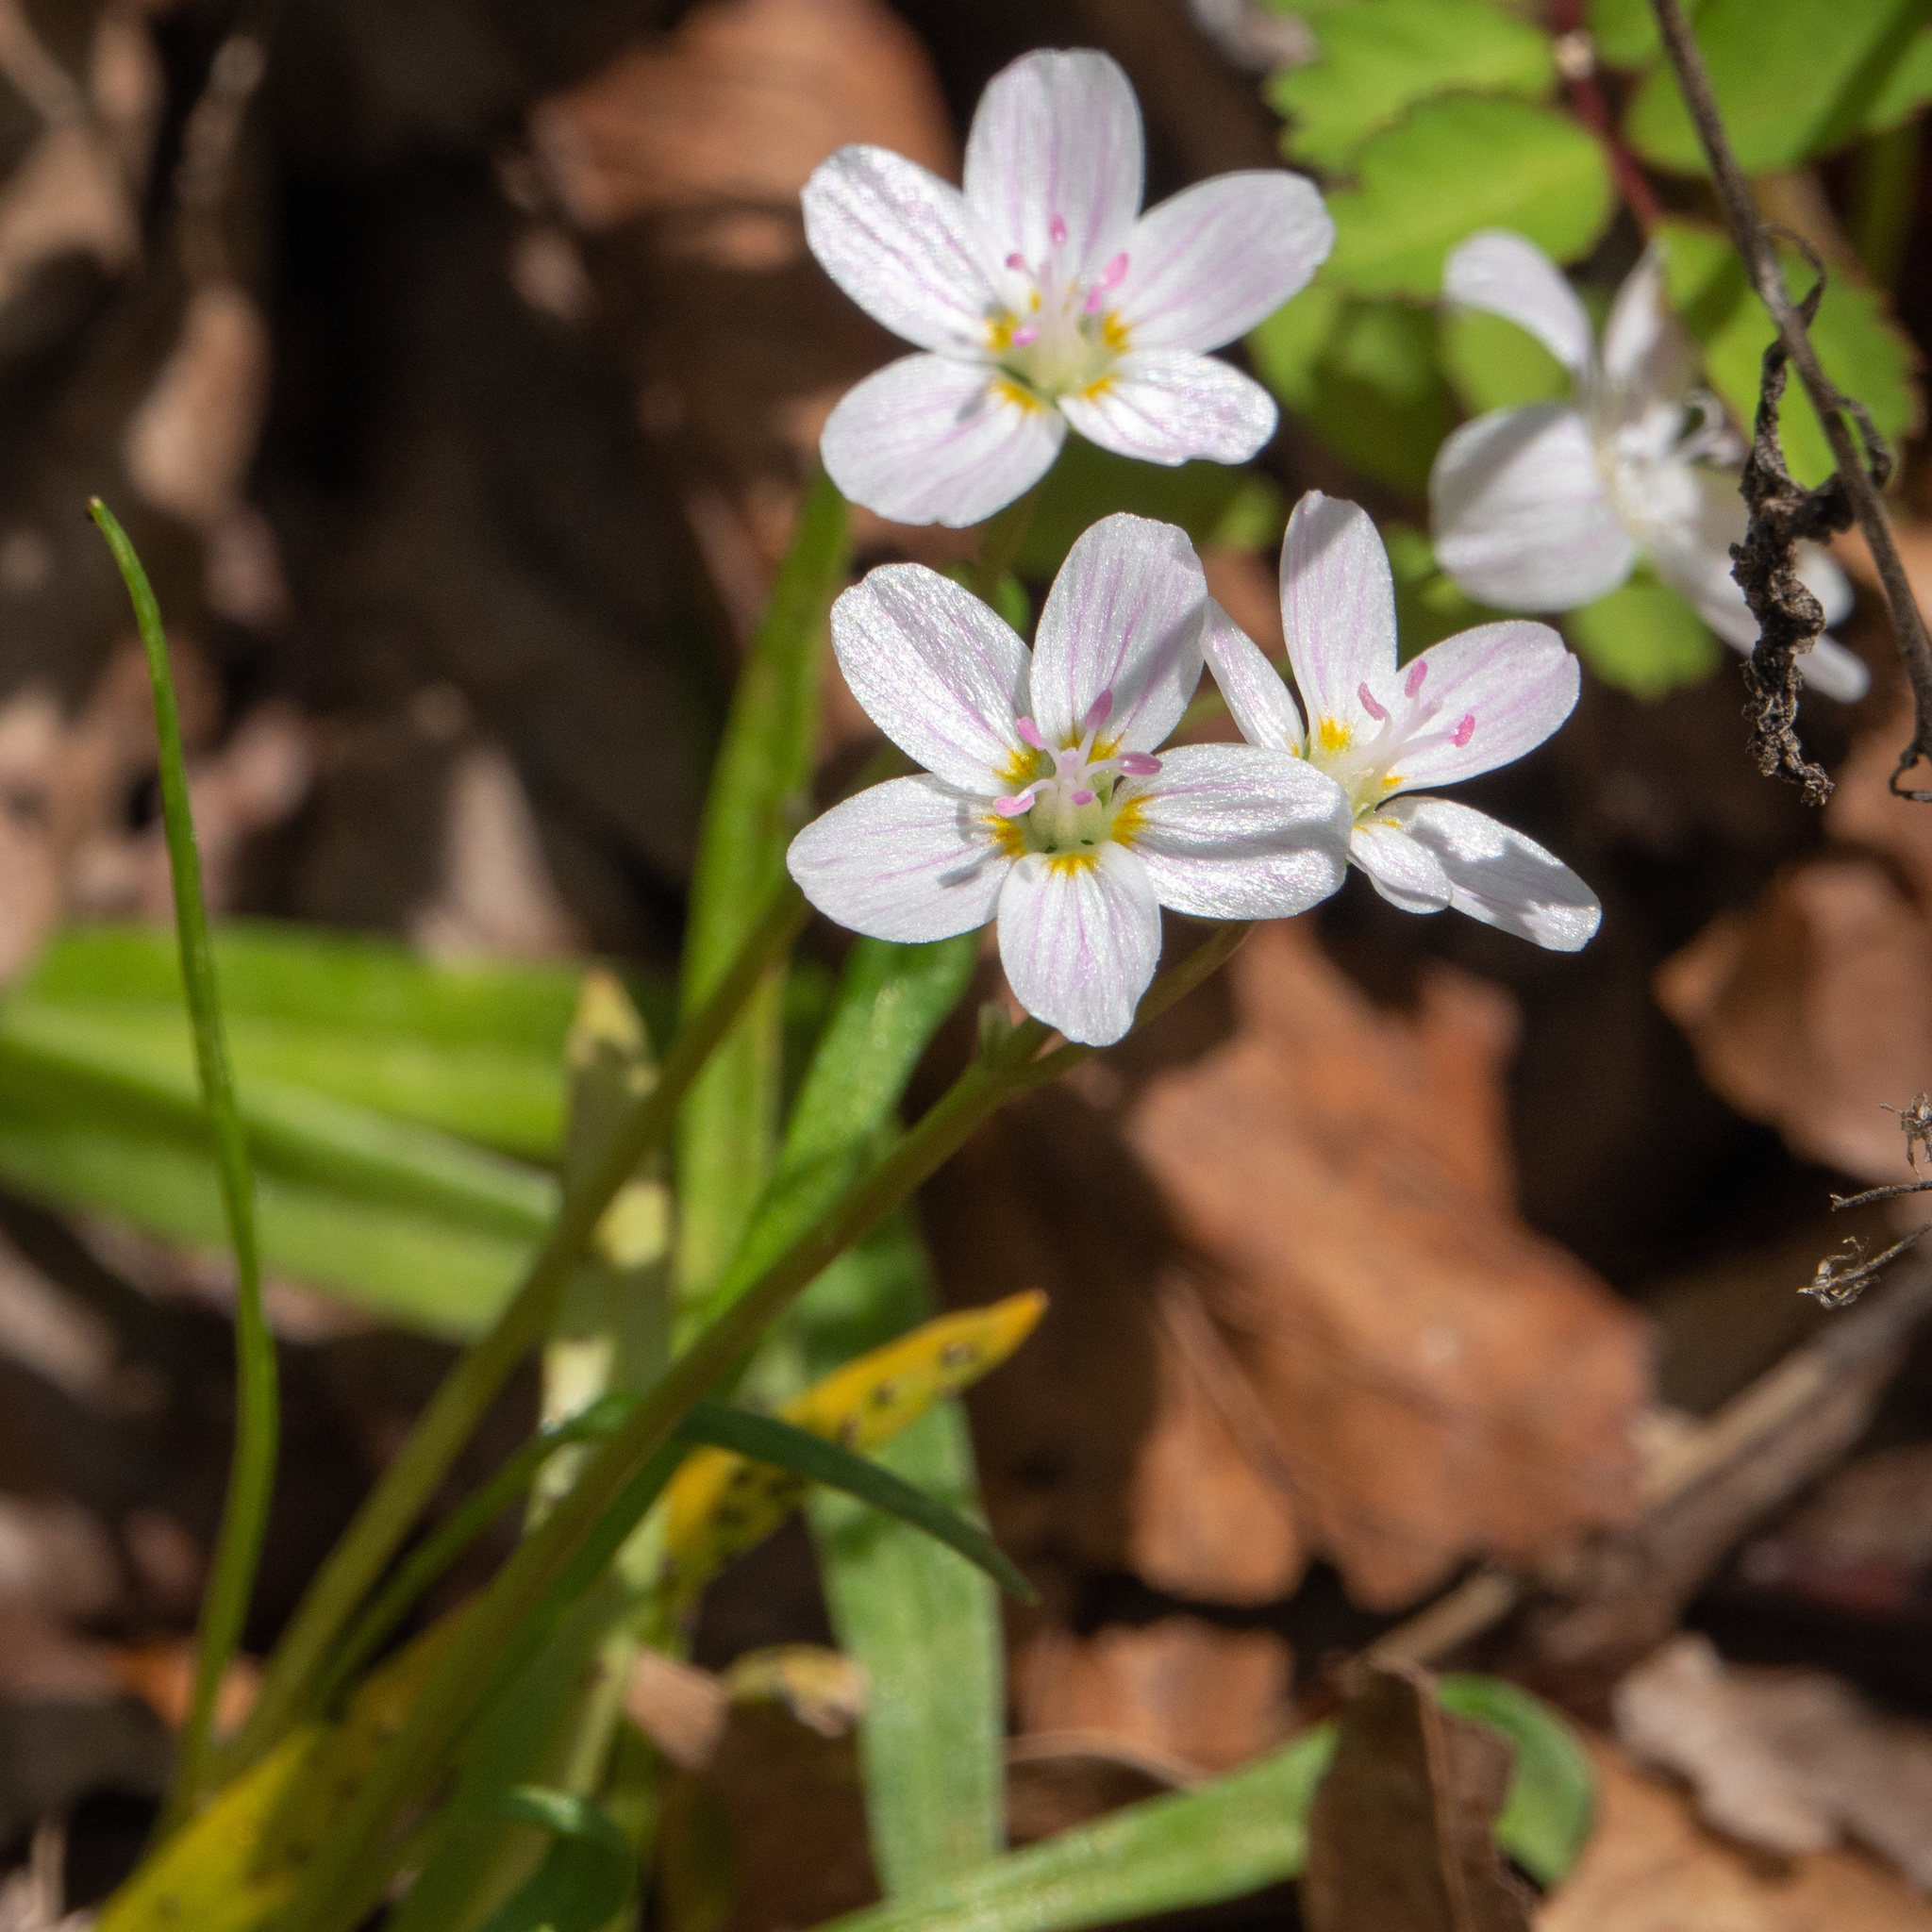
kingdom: Plantae
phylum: Tracheophyta
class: Magnoliopsida
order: Caryophyllales
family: Montiaceae
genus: Claytonia
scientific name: Claytonia virginica
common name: Virginia springbeauty
